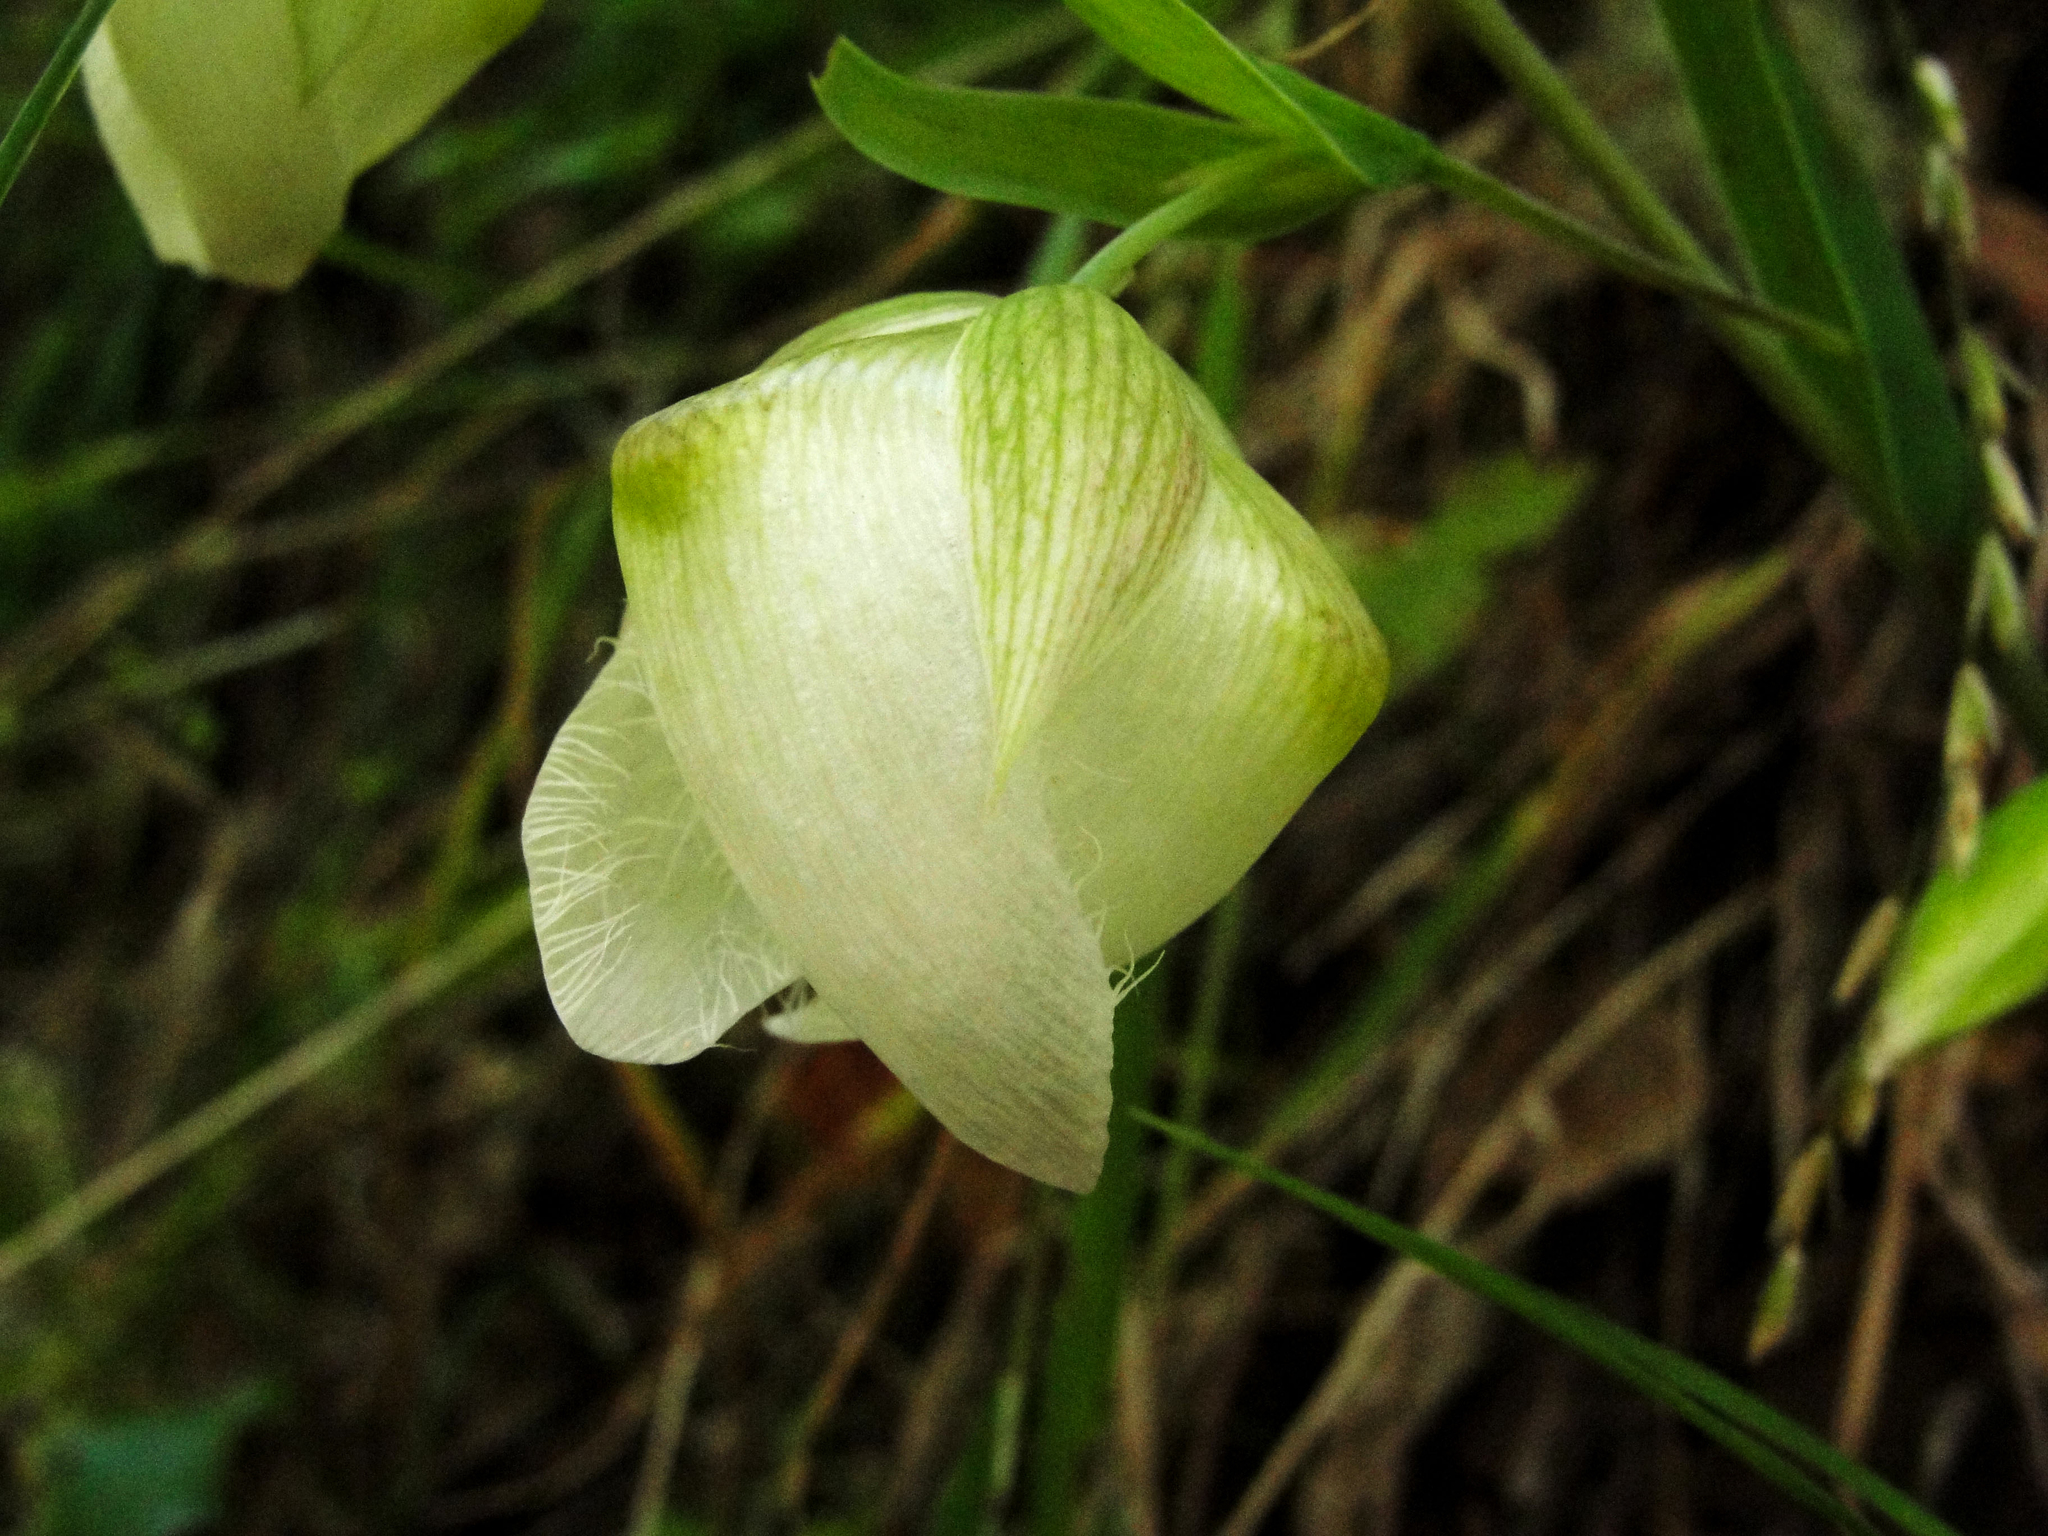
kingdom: Plantae
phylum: Tracheophyta
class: Liliopsida
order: Liliales
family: Liliaceae
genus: Calochortus
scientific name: Calochortus albus
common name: Fairy-lantern
